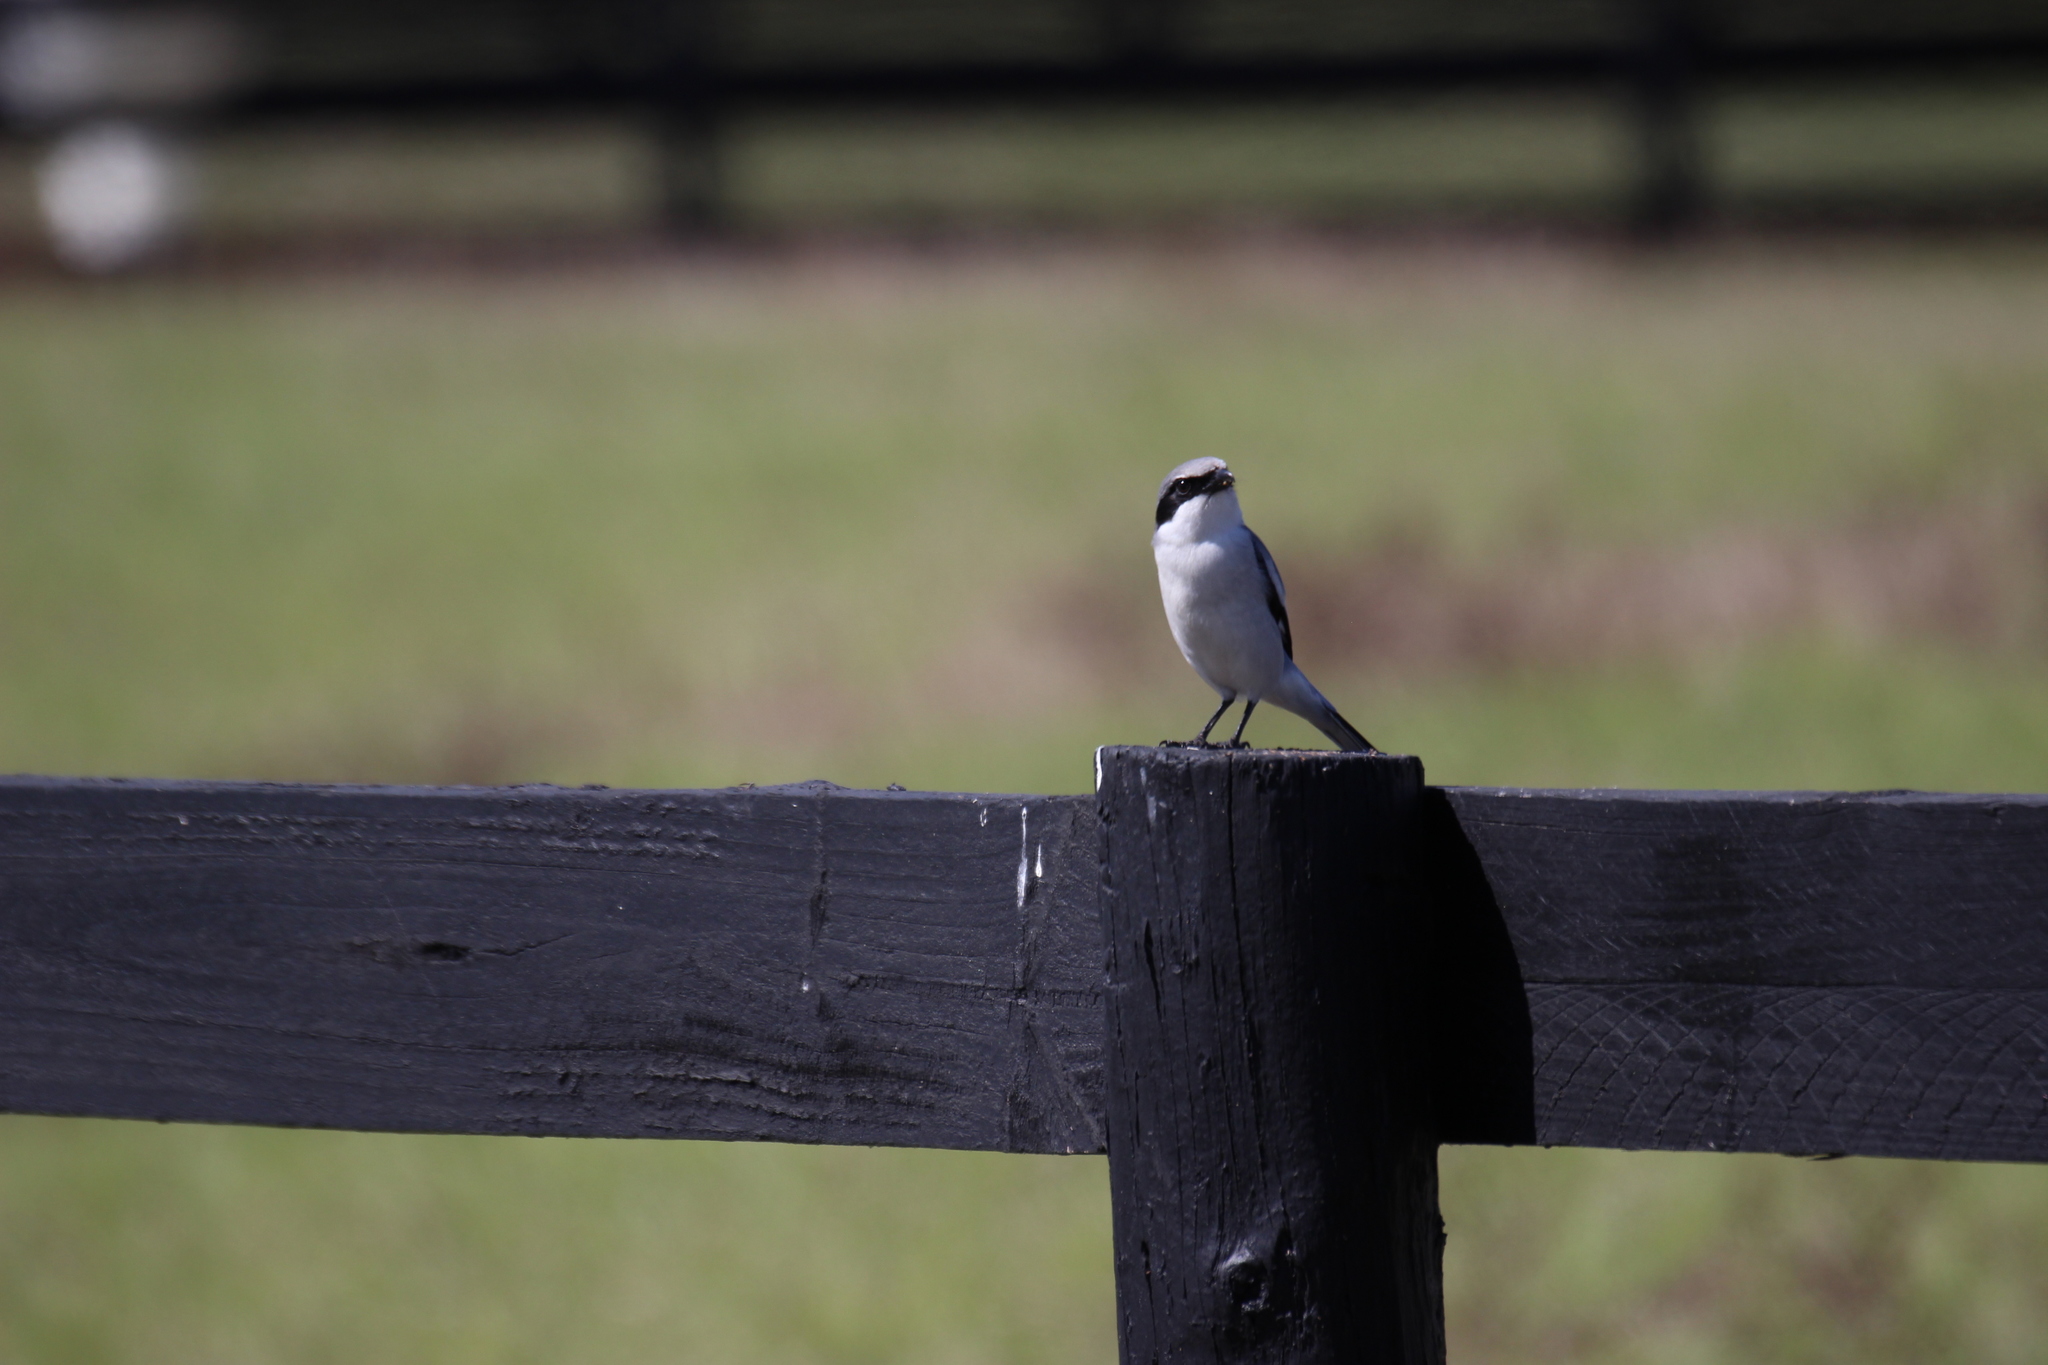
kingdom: Animalia
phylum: Chordata
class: Aves
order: Passeriformes
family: Laniidae
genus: Lanius
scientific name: Lanius ludovicianus
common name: Loggerhead shrike
